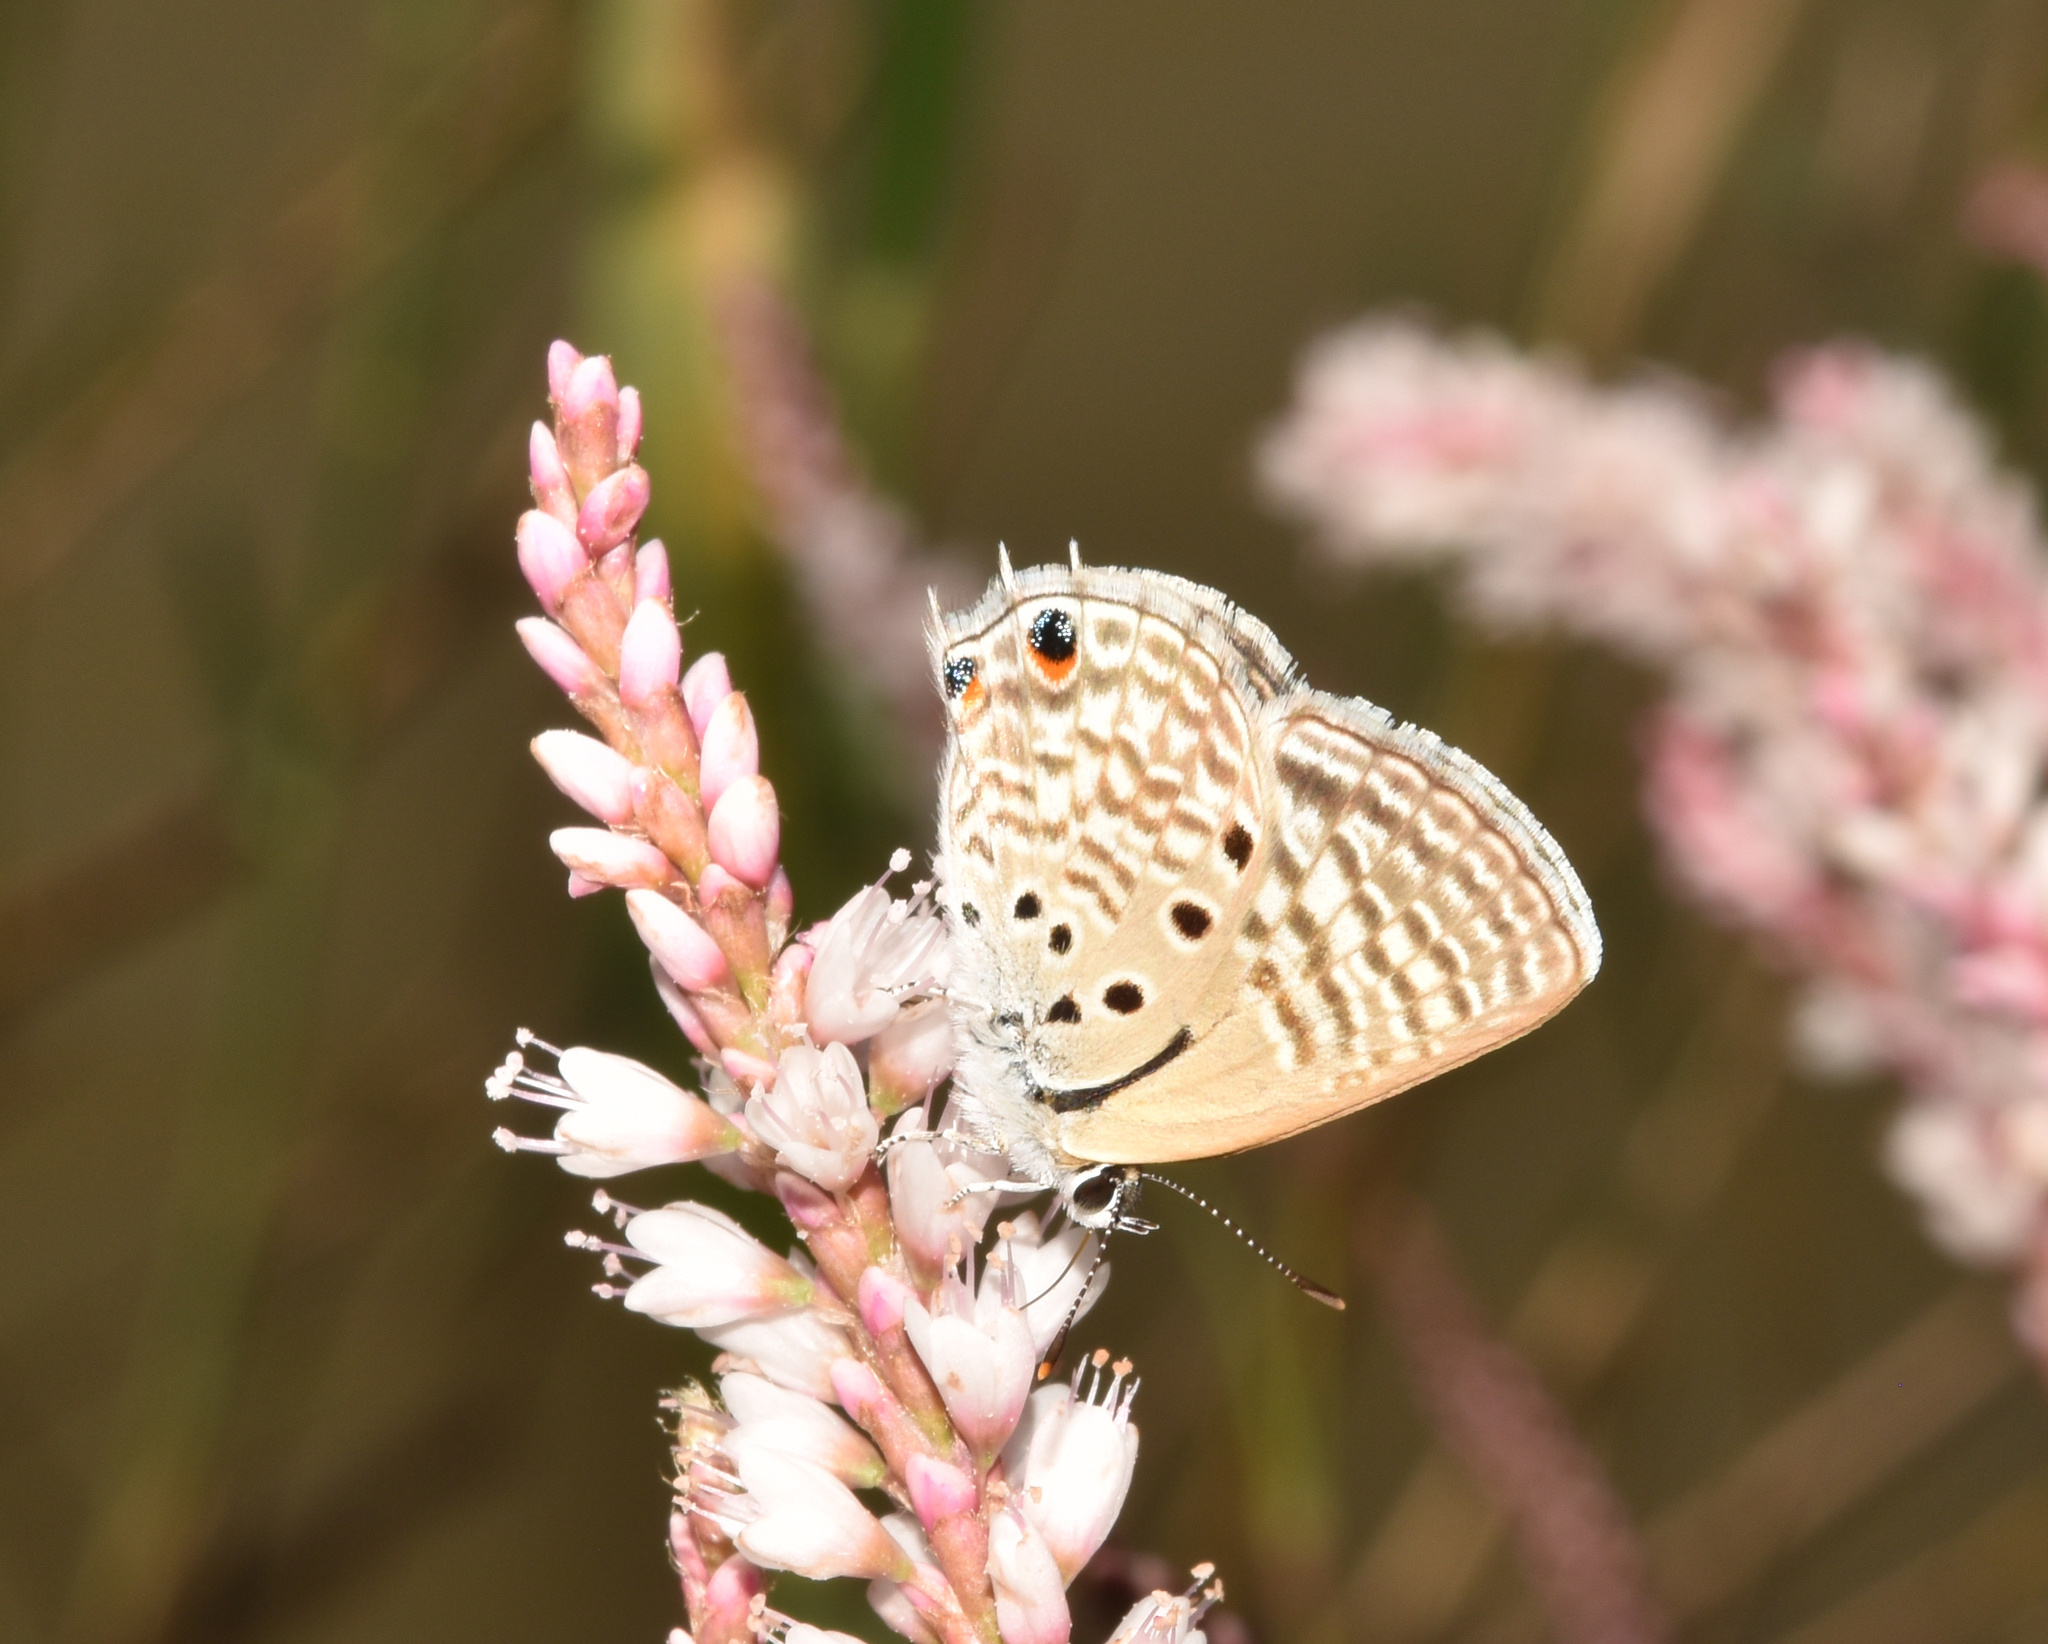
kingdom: Animalia
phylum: Arthropoda
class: Insecta
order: Lepidoptera
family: Lycaenidae
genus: Anthene
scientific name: Anthene amarah
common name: Black-striped hairtail
